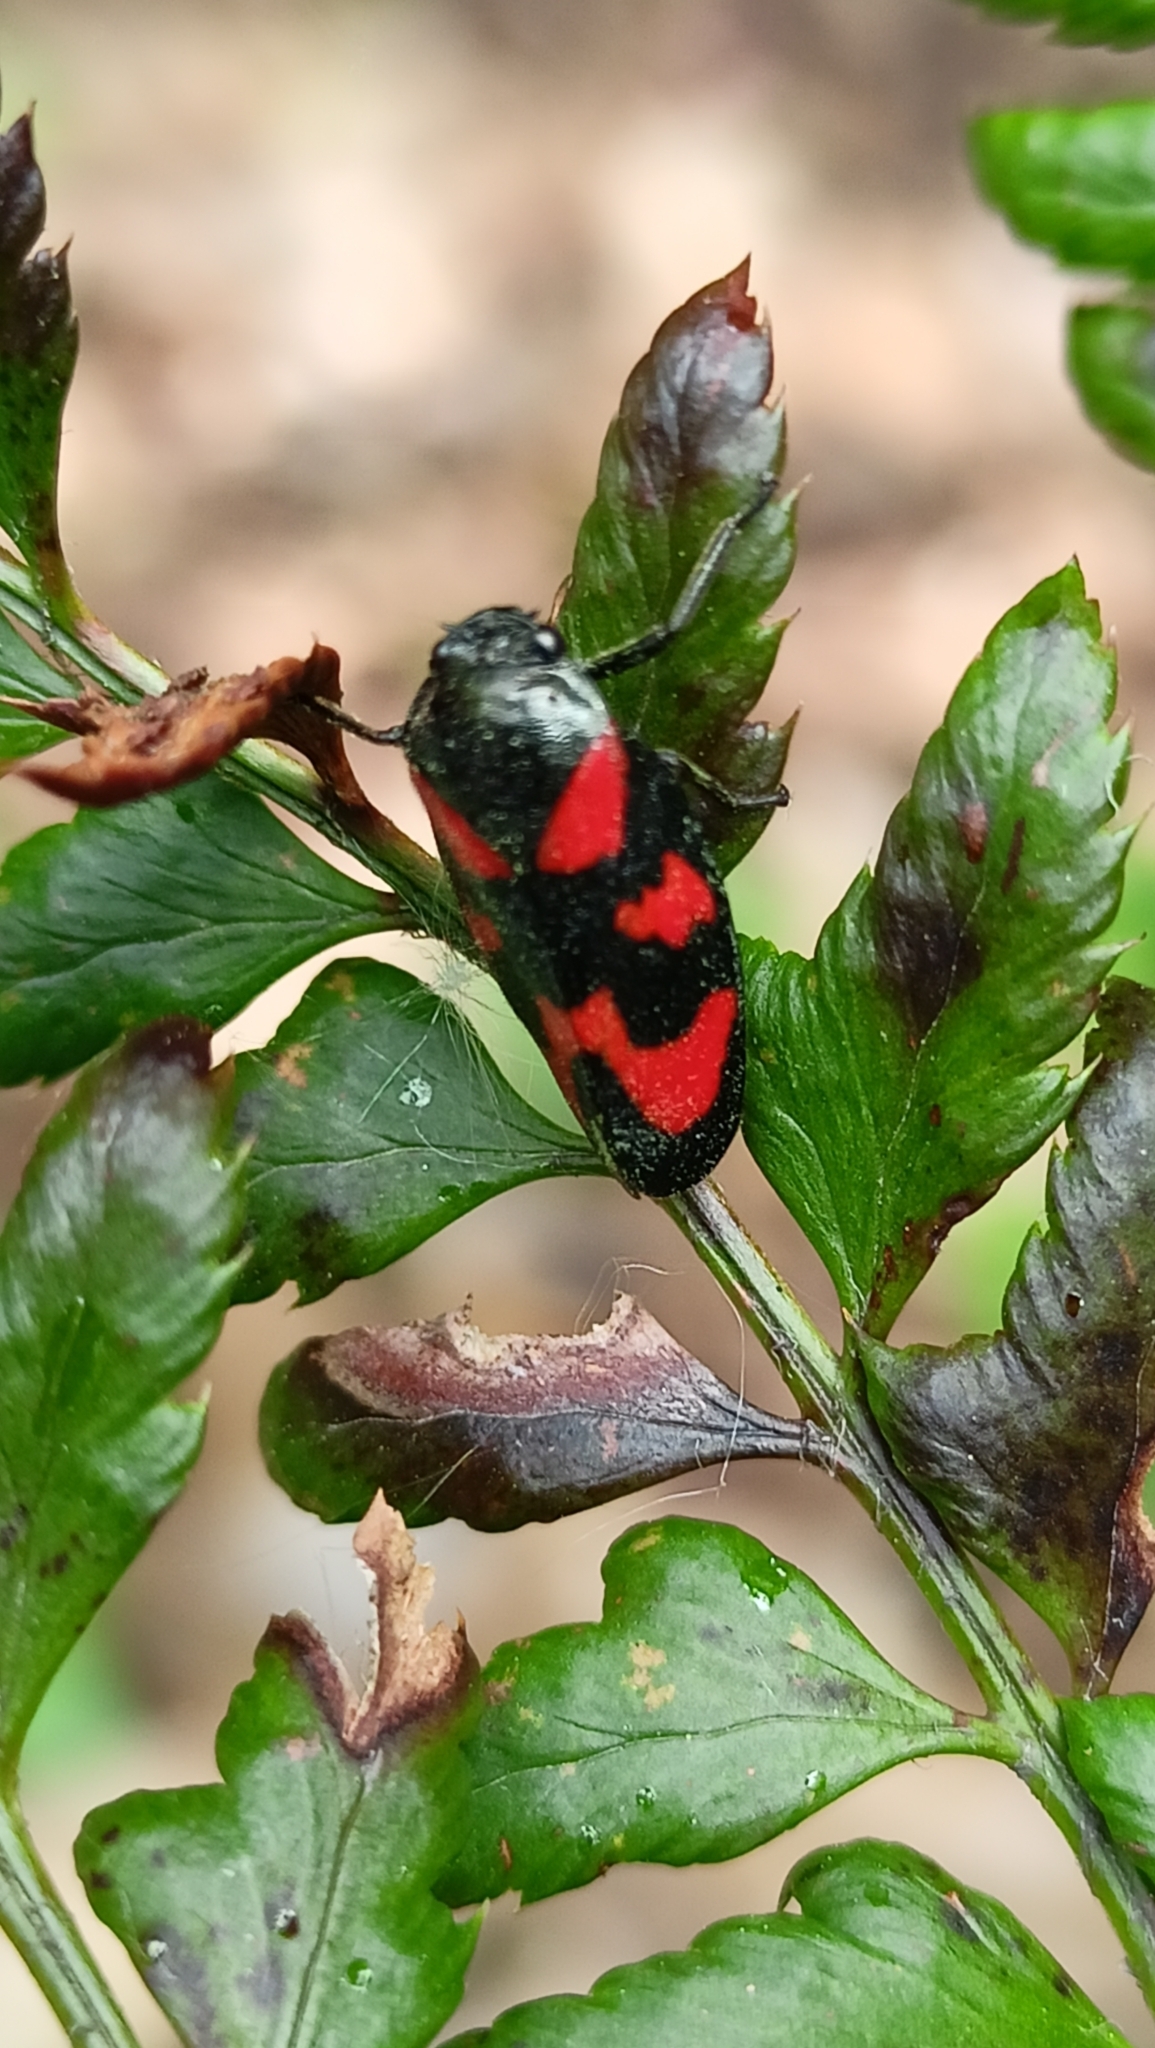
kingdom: Animalia
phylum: Arthropoda
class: Insecta
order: Hemiptera
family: Cercopidae
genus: Cercopis
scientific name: Cercopis vulnerata
